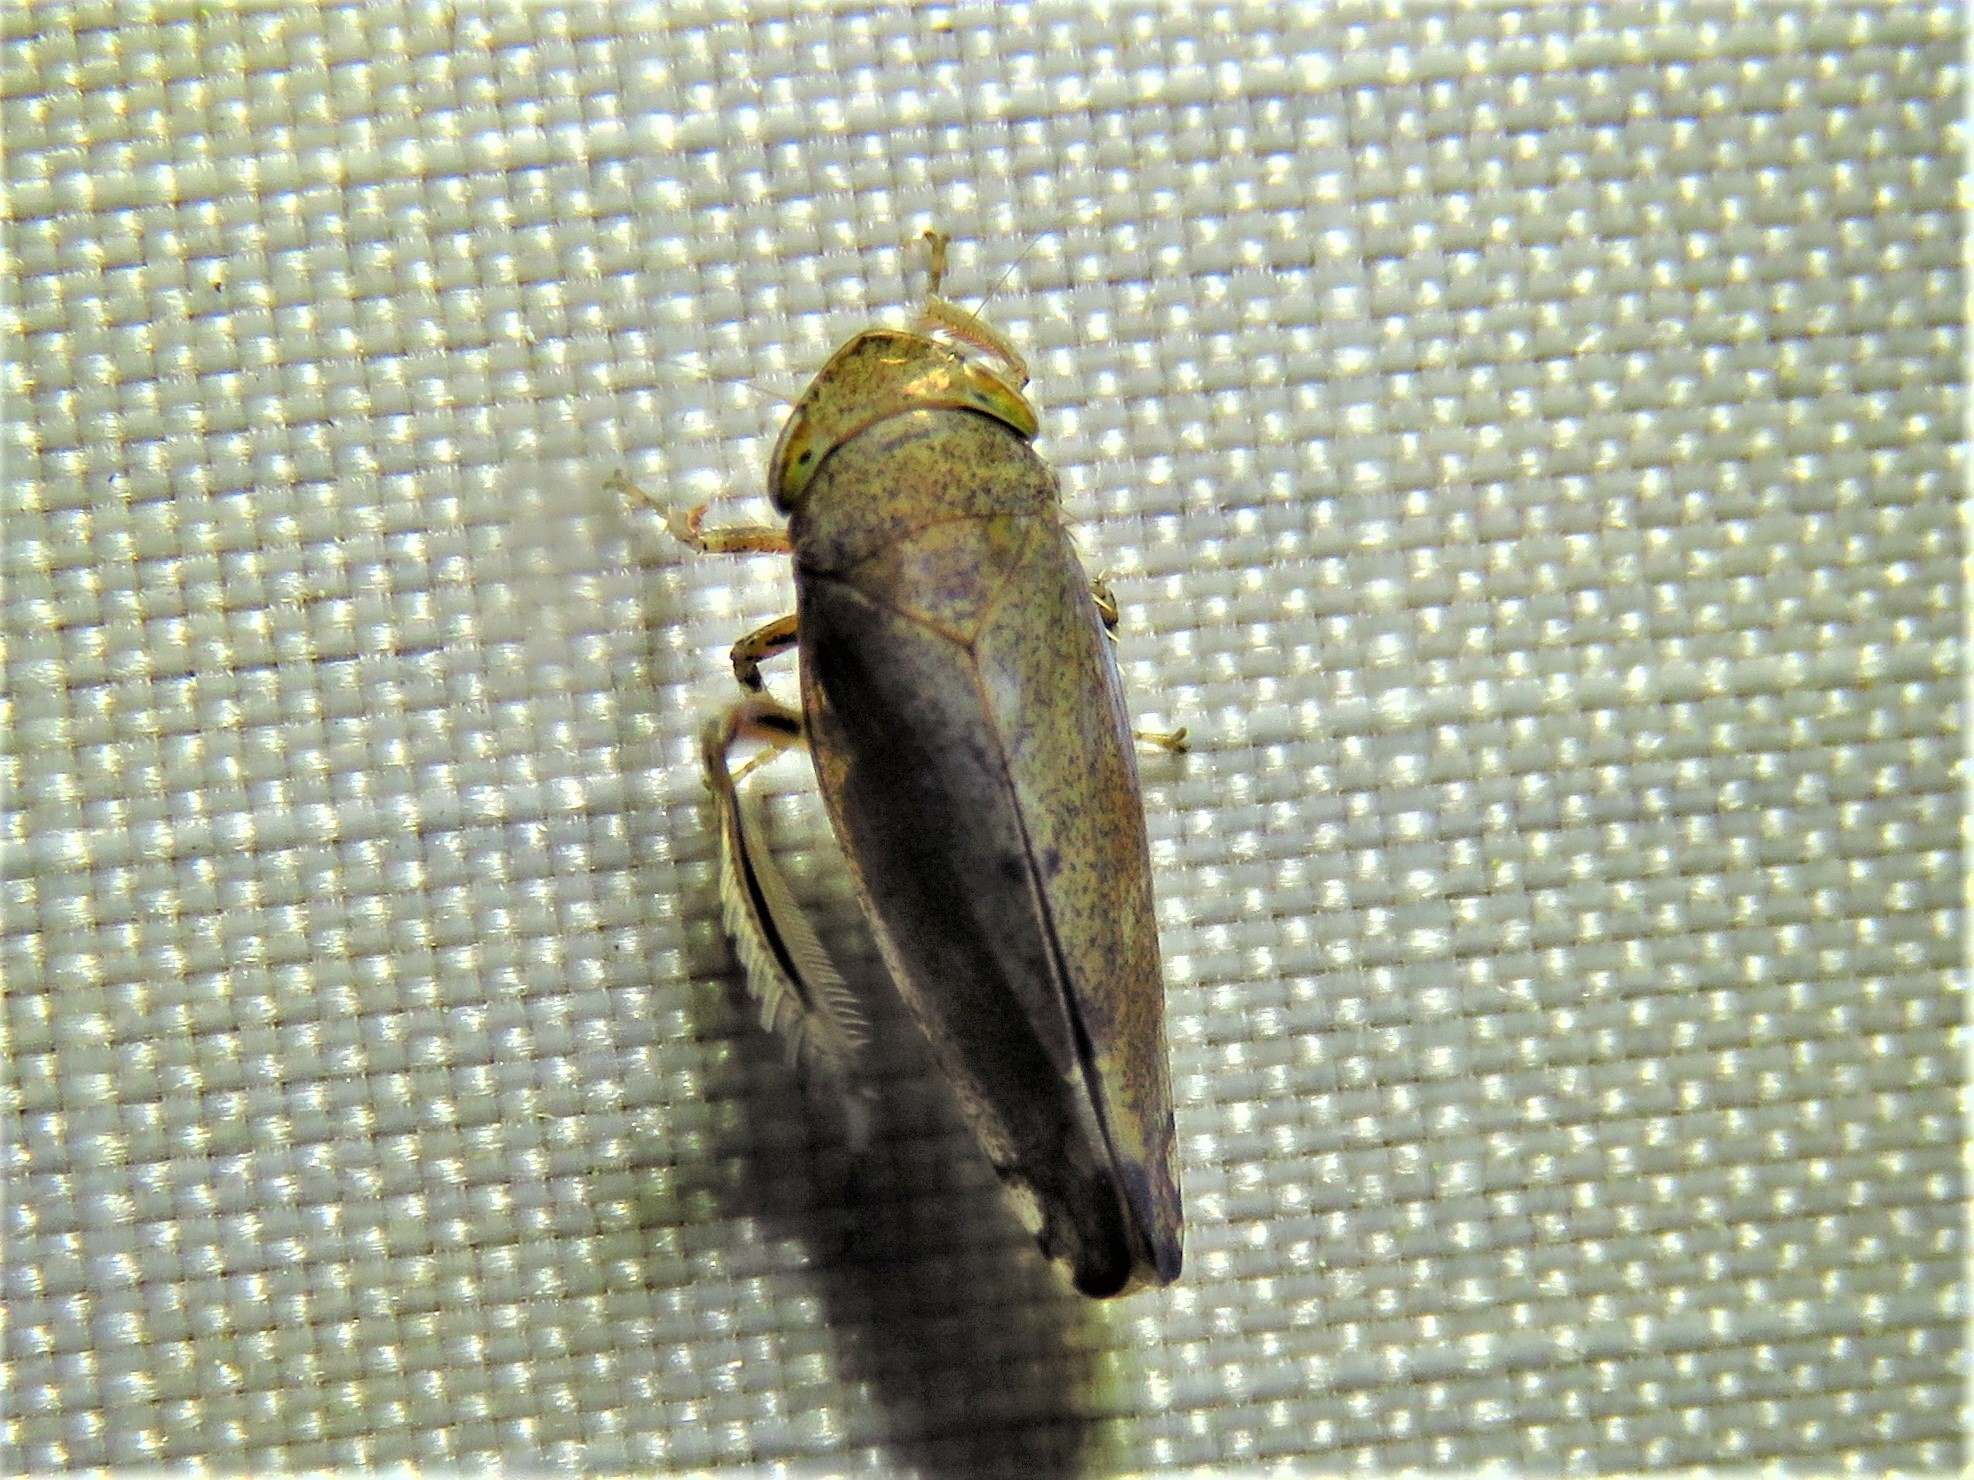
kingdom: Animalia
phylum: Arthropoda
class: Insecta
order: Hemiptera
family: Cicadellidae
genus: Fieberiella
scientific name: Fieberiella florii
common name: Flor’s leafhopper
